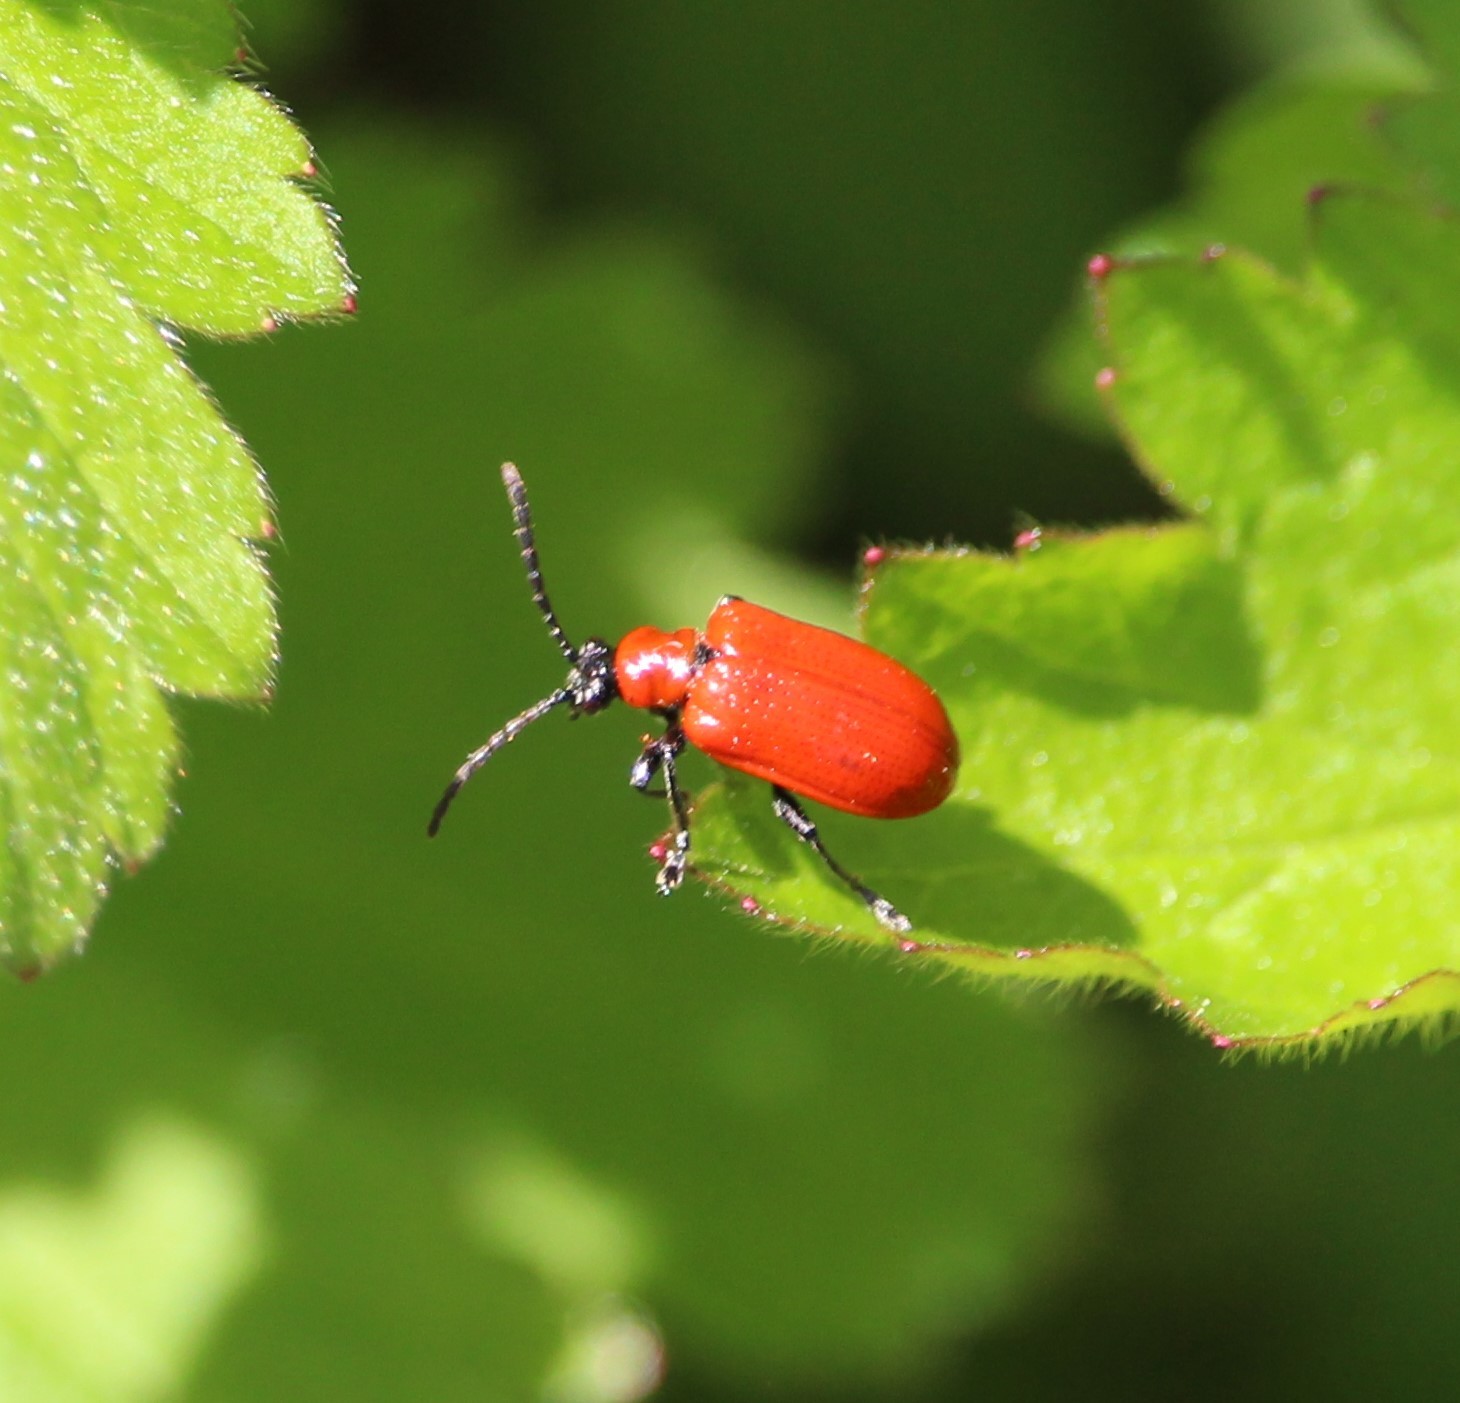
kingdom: Animalia
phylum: Arthropoda
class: Insecta
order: Coleoptera
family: Chrysomelidae
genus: Lilioceris
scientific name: Lilioceris lilii
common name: Lily beetle
